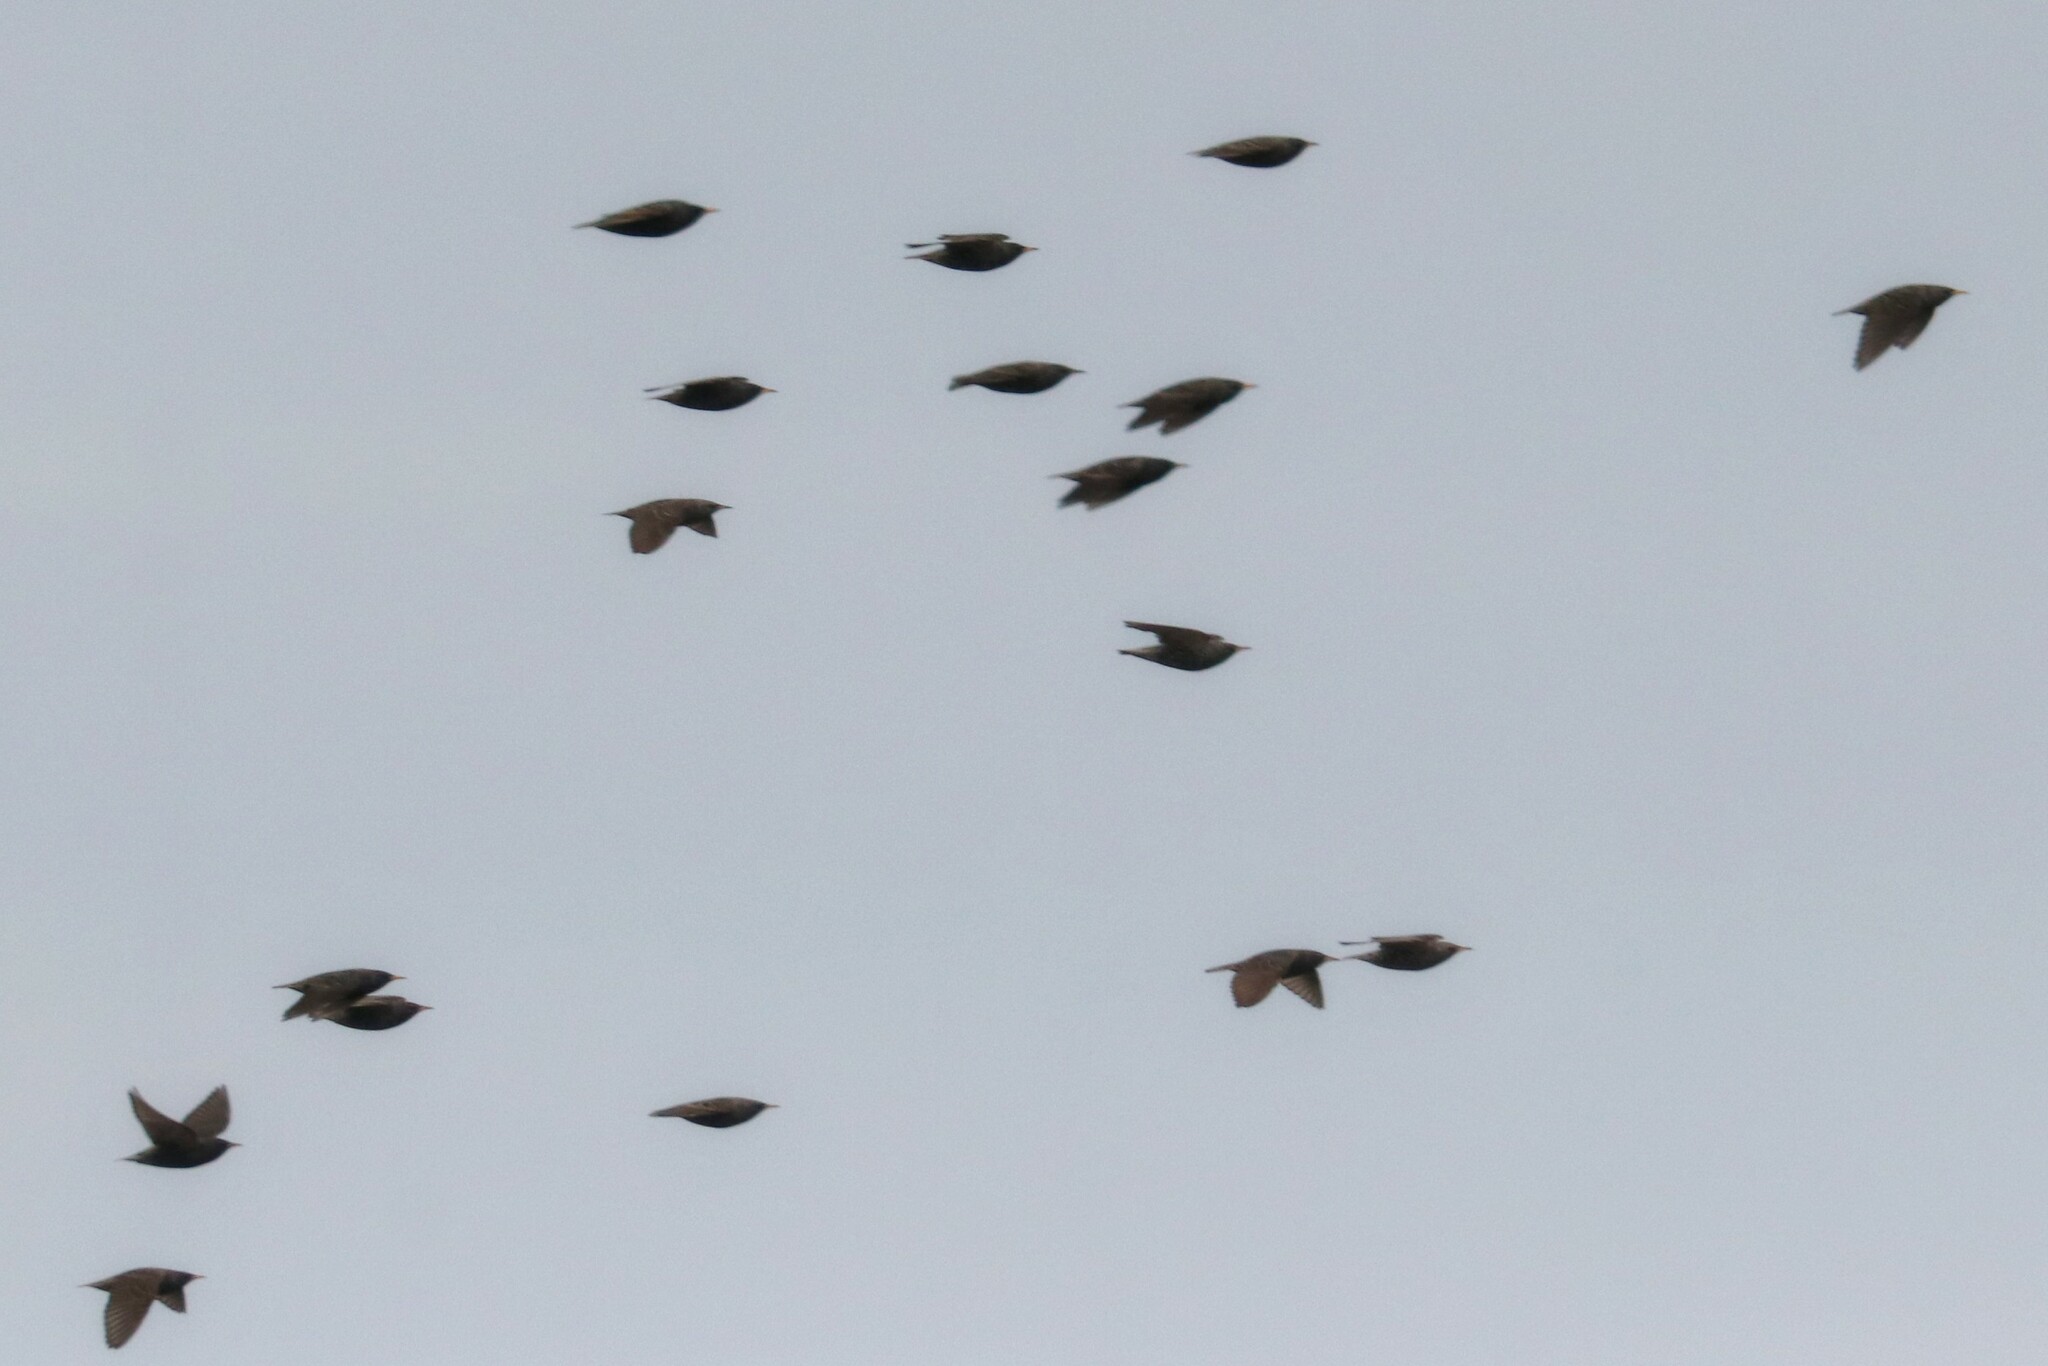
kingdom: Animalia
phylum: Chordata
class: Aves
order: Passeriformes
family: Sturnidae
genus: Sturnus
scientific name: Sturnus vulgaris
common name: Common starling
